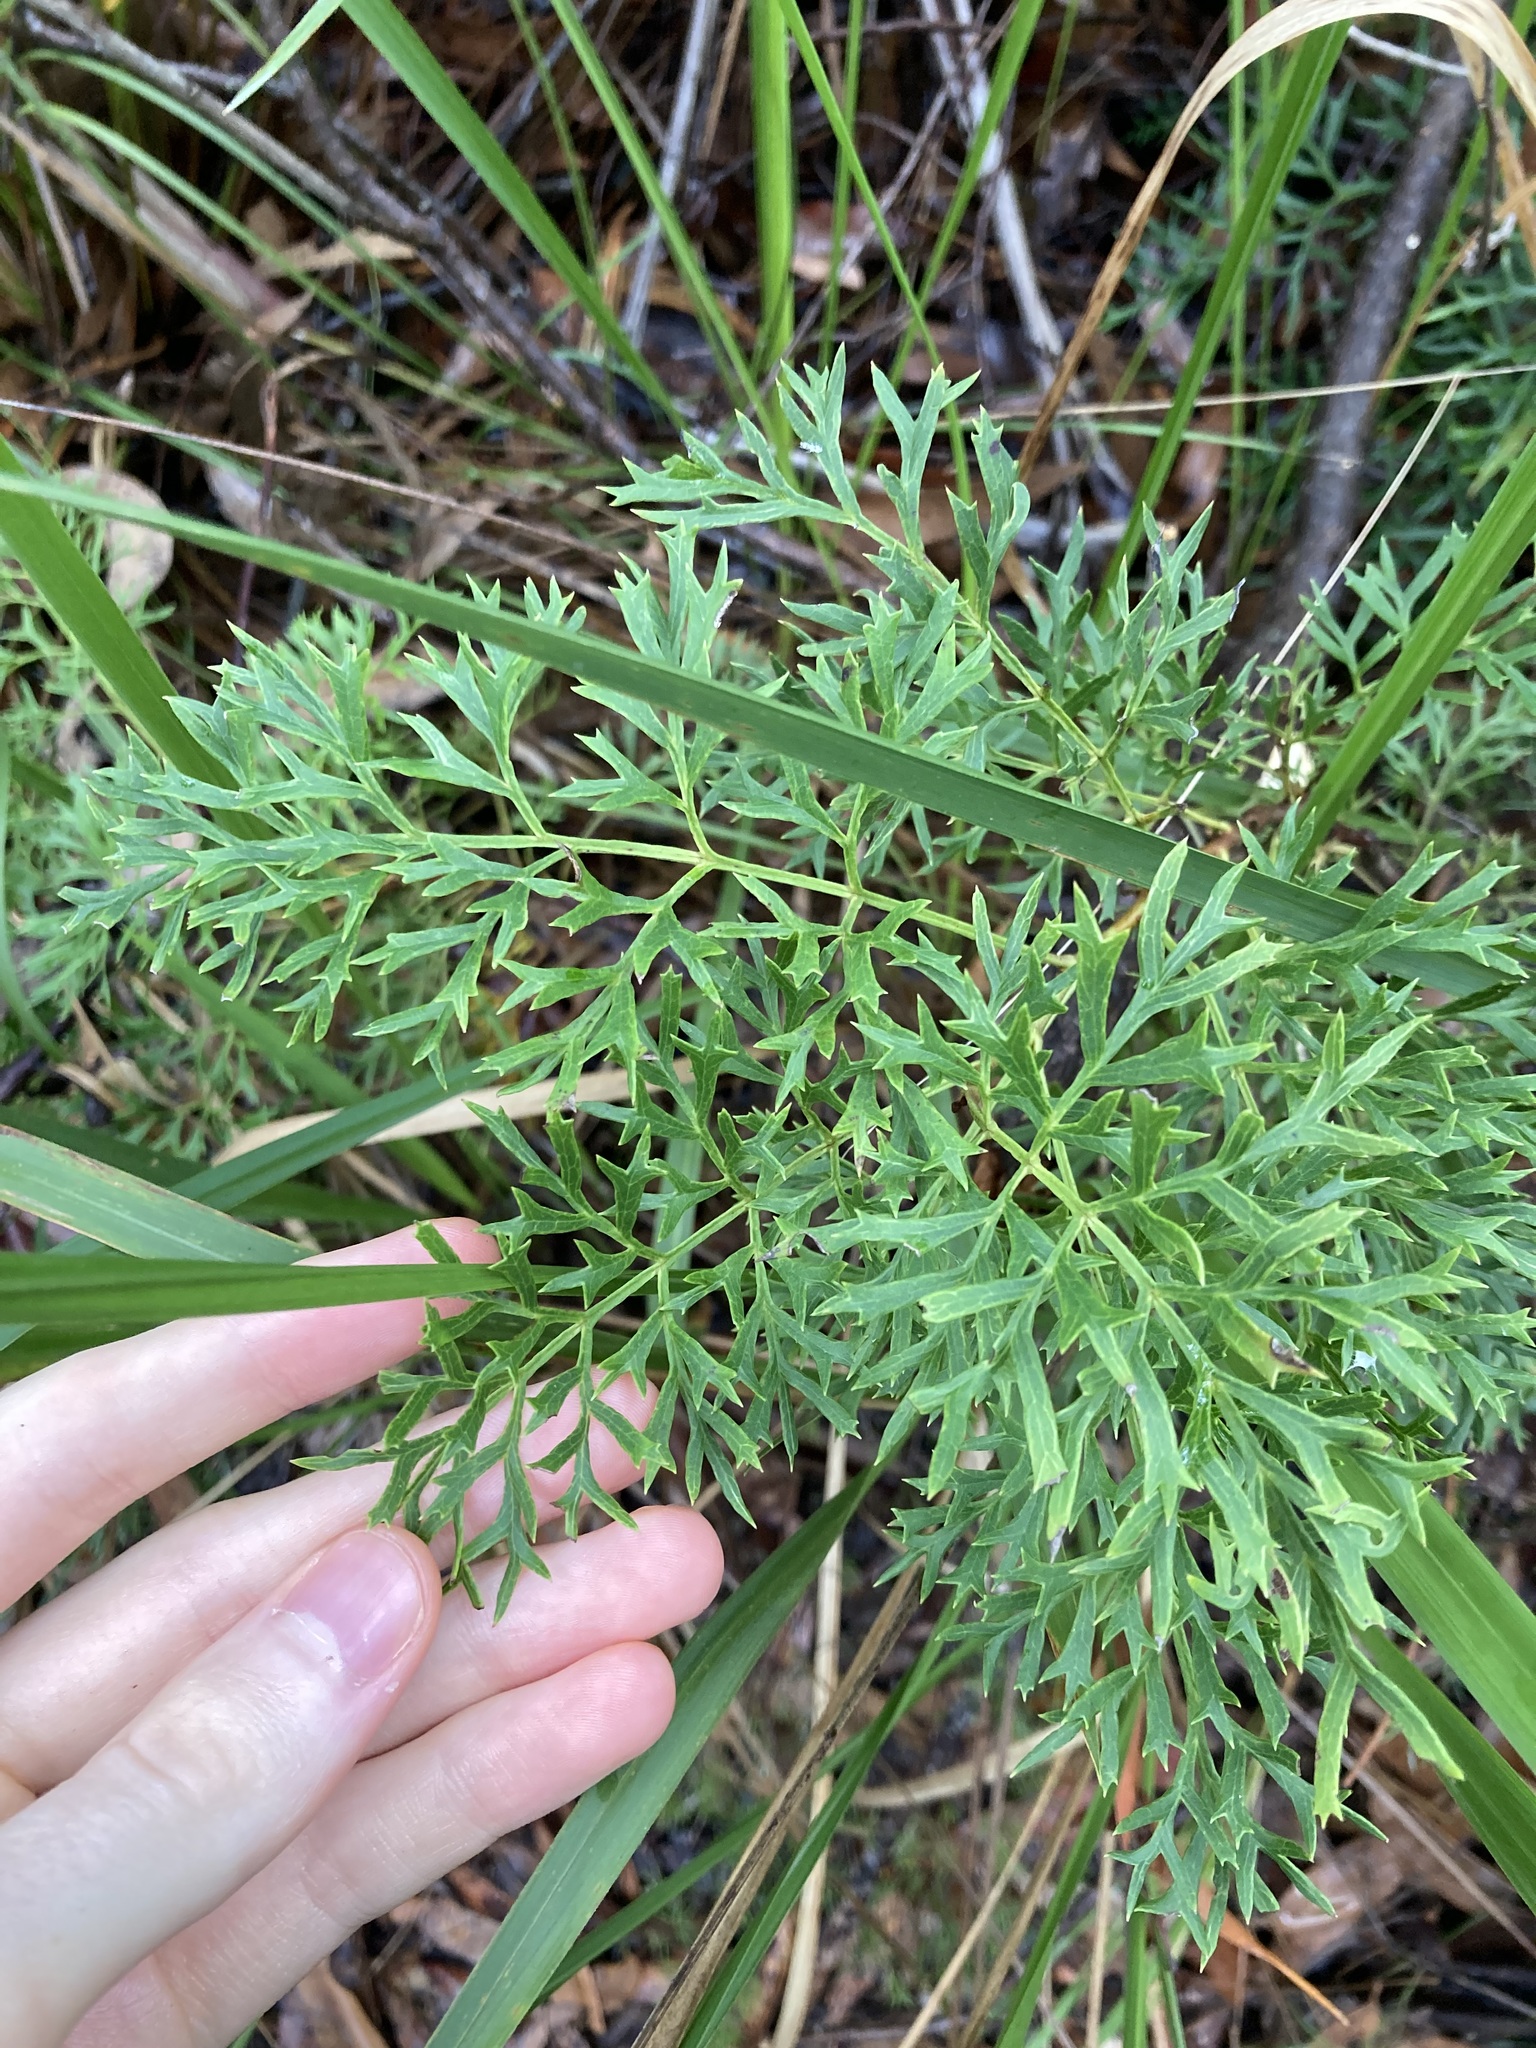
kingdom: Plantae
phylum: Tracheophyta
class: Magnoliopsida
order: Proteales
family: Proteaceae
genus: Lomatia
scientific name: Lomatia silaifolia
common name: Crinklebush
